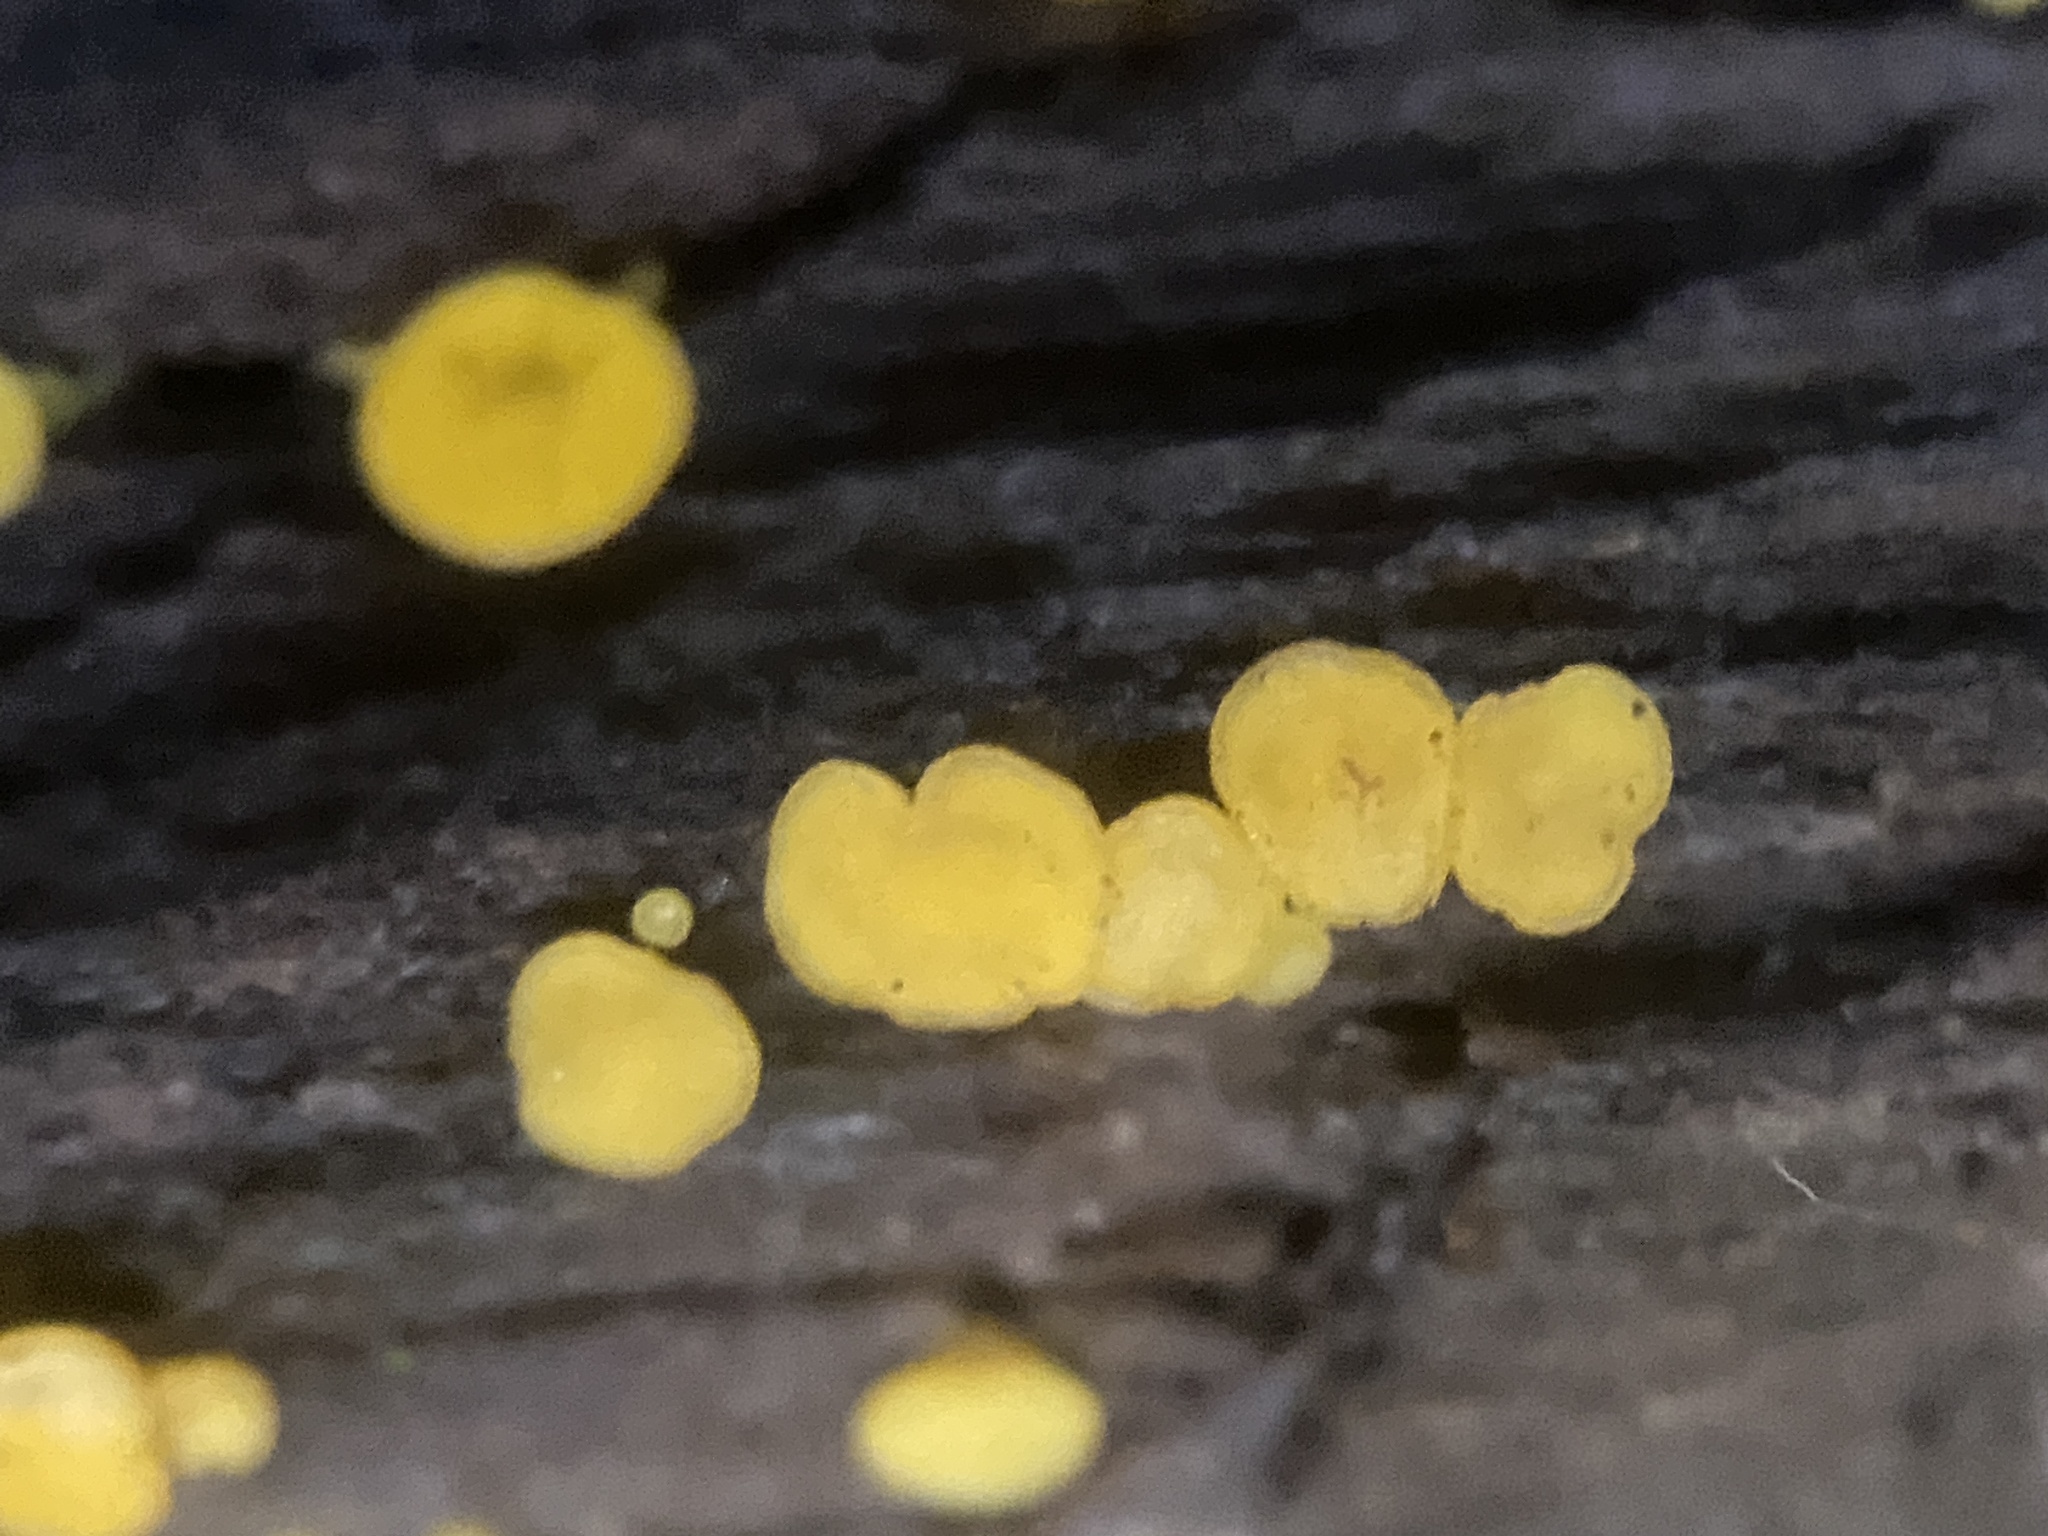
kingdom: Fungi
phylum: Ascomycota
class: Leotiomycetes
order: Helotiales
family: Pezizellaceae
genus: Calycina
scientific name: Calycina citrina
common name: Yellow fairy cups
